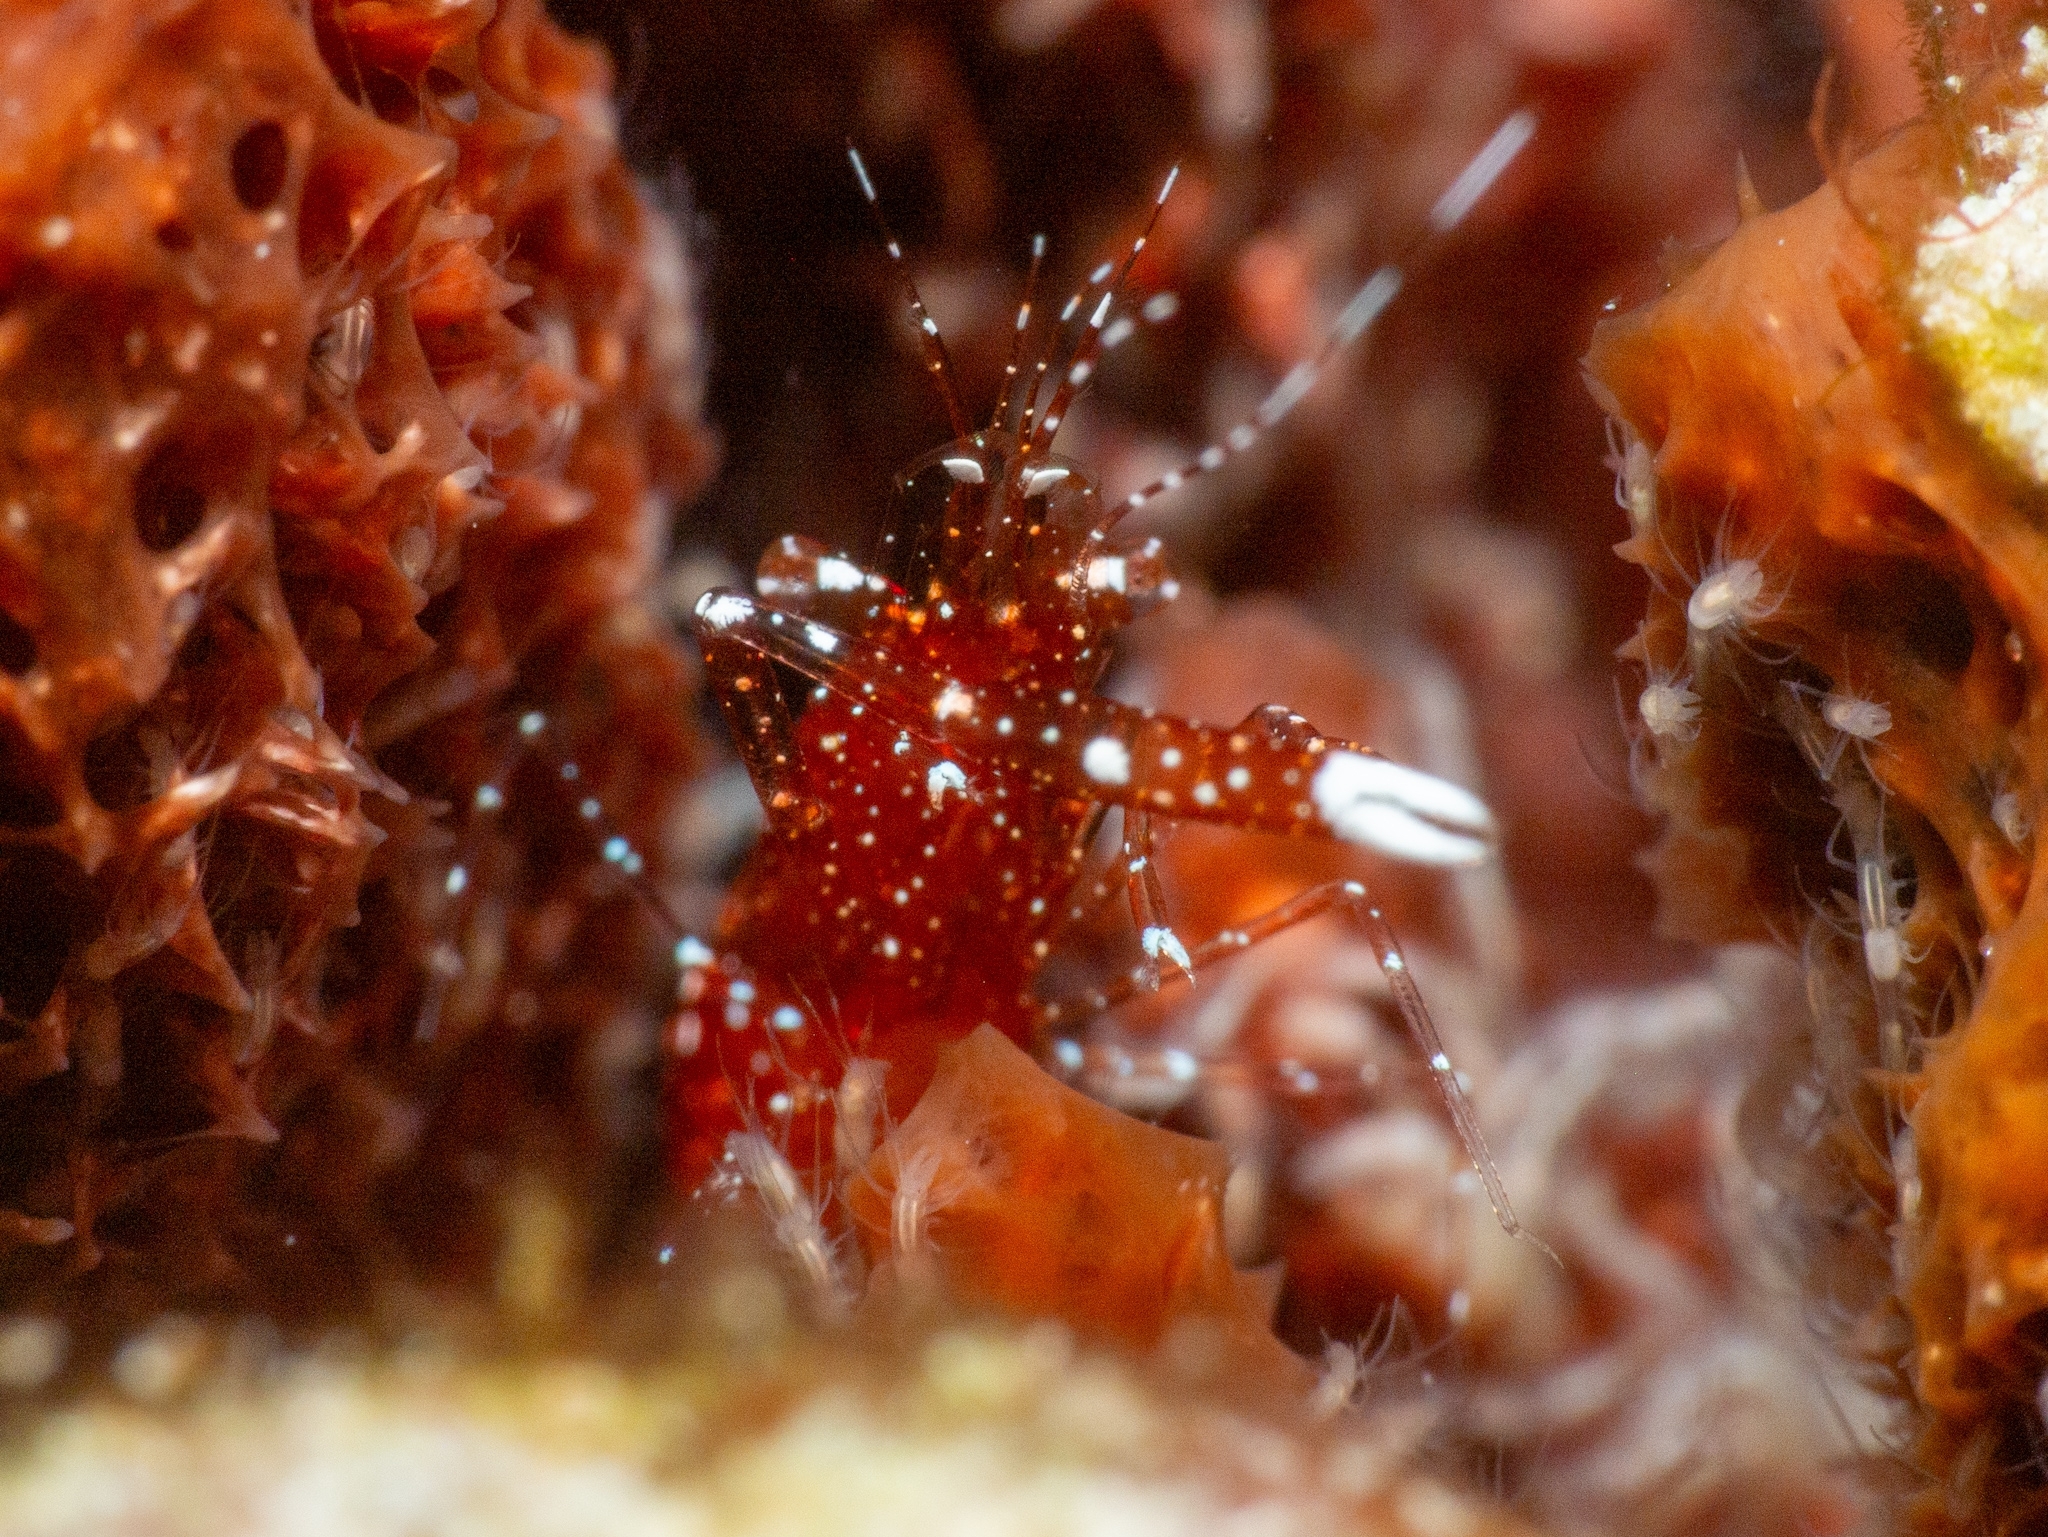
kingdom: Animalia
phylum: Arthropoda
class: Malacostraca
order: Decapoda
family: Palaemonidae
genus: Periclimenes
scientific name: Periclimenes harringtoni
